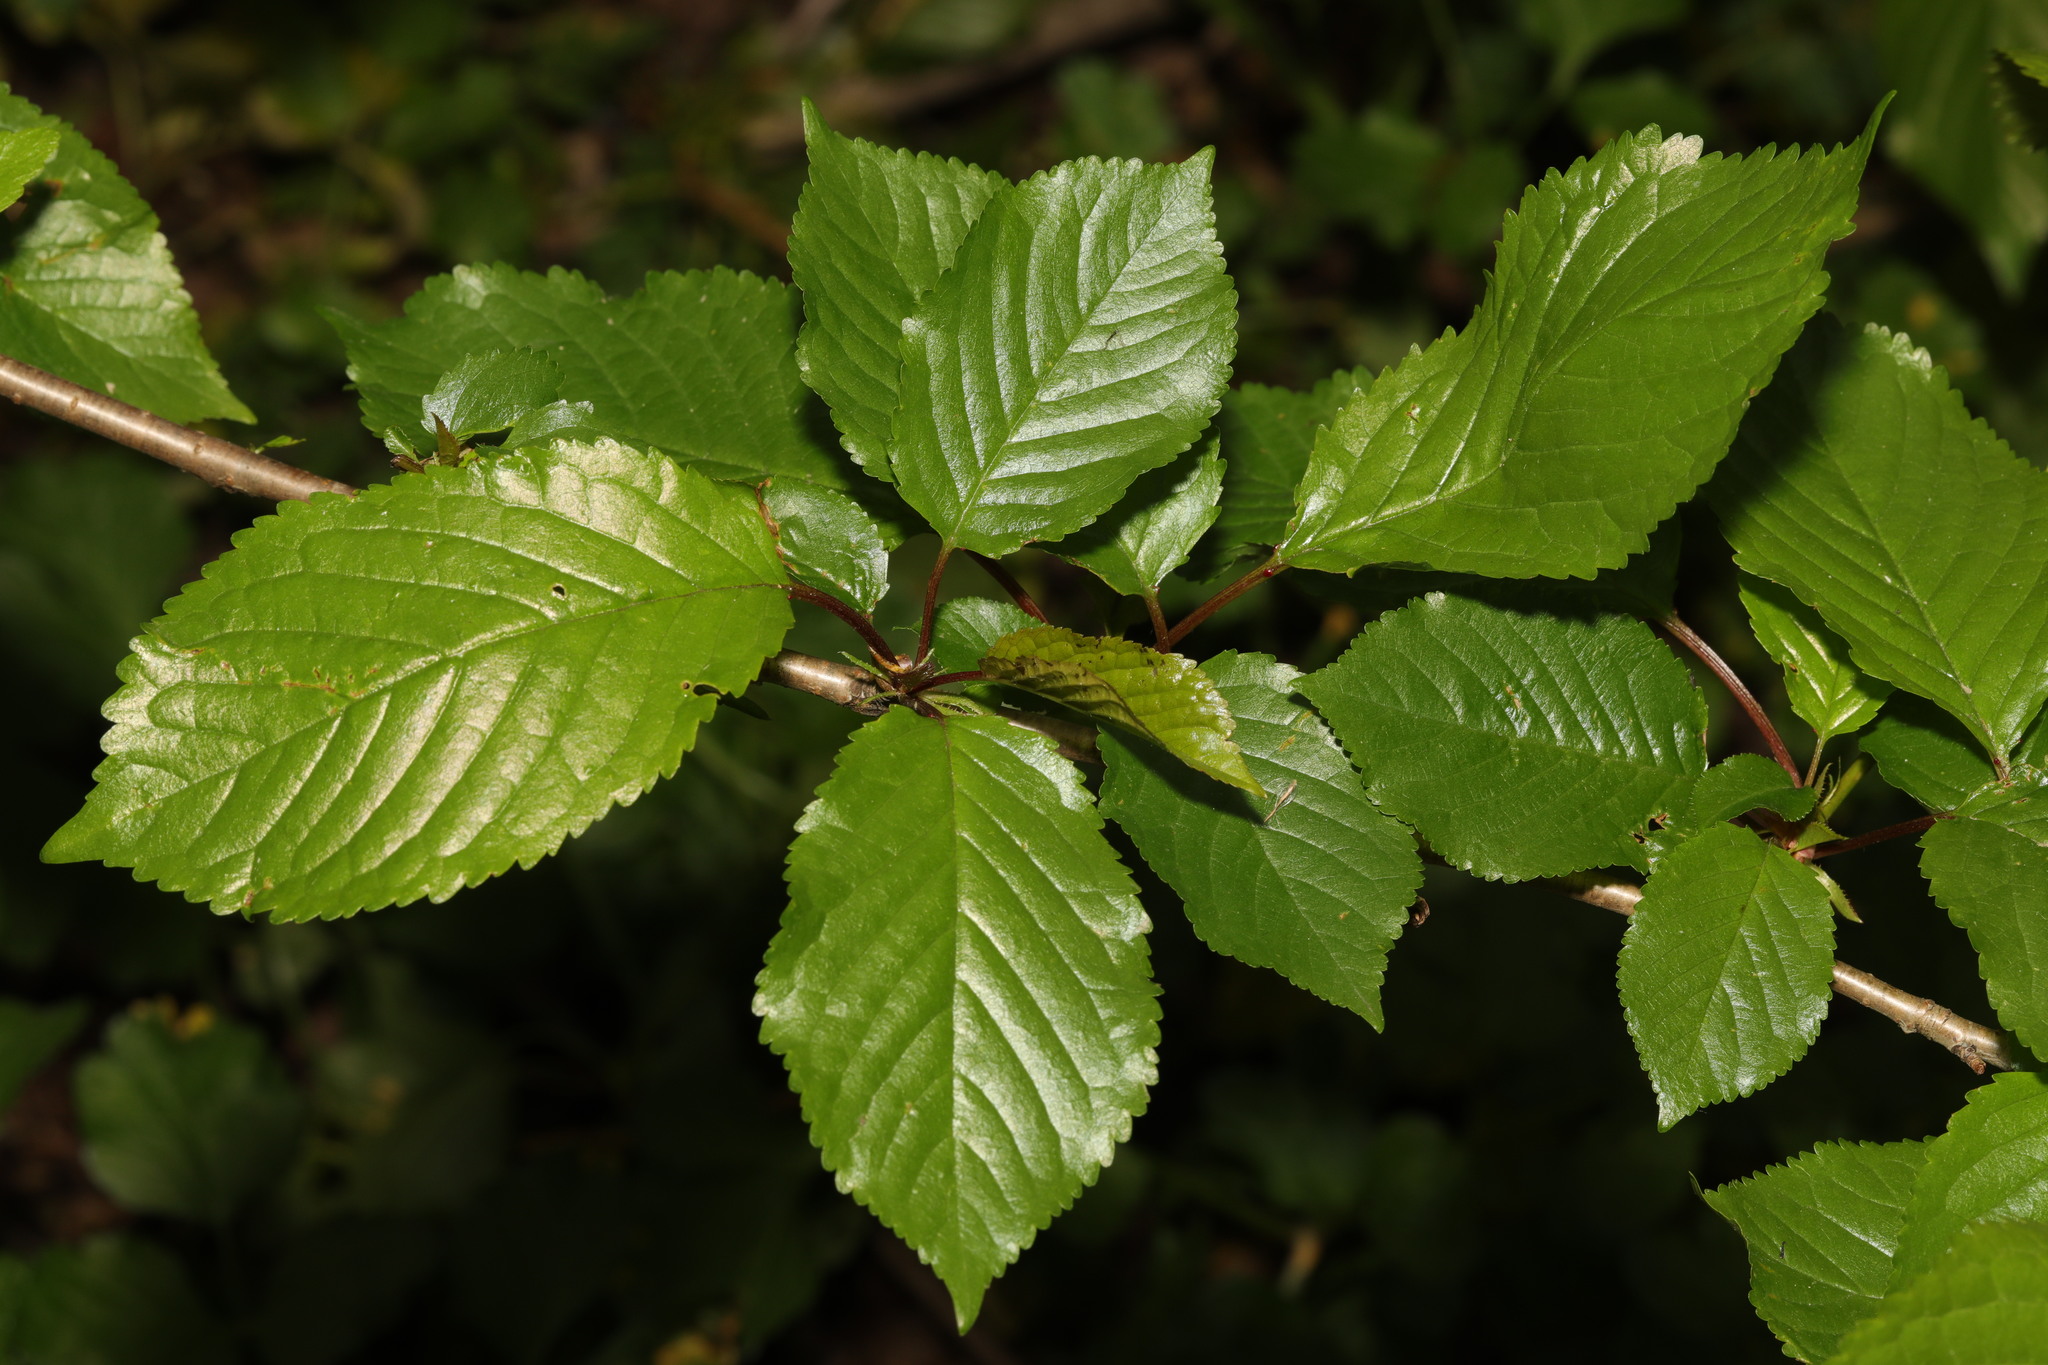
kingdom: Plantae
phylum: Tracheophyta
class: Magnoliopsida
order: Rosales
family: Rosaceae
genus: Prunus
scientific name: Prunus avium
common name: Sweet cherry
